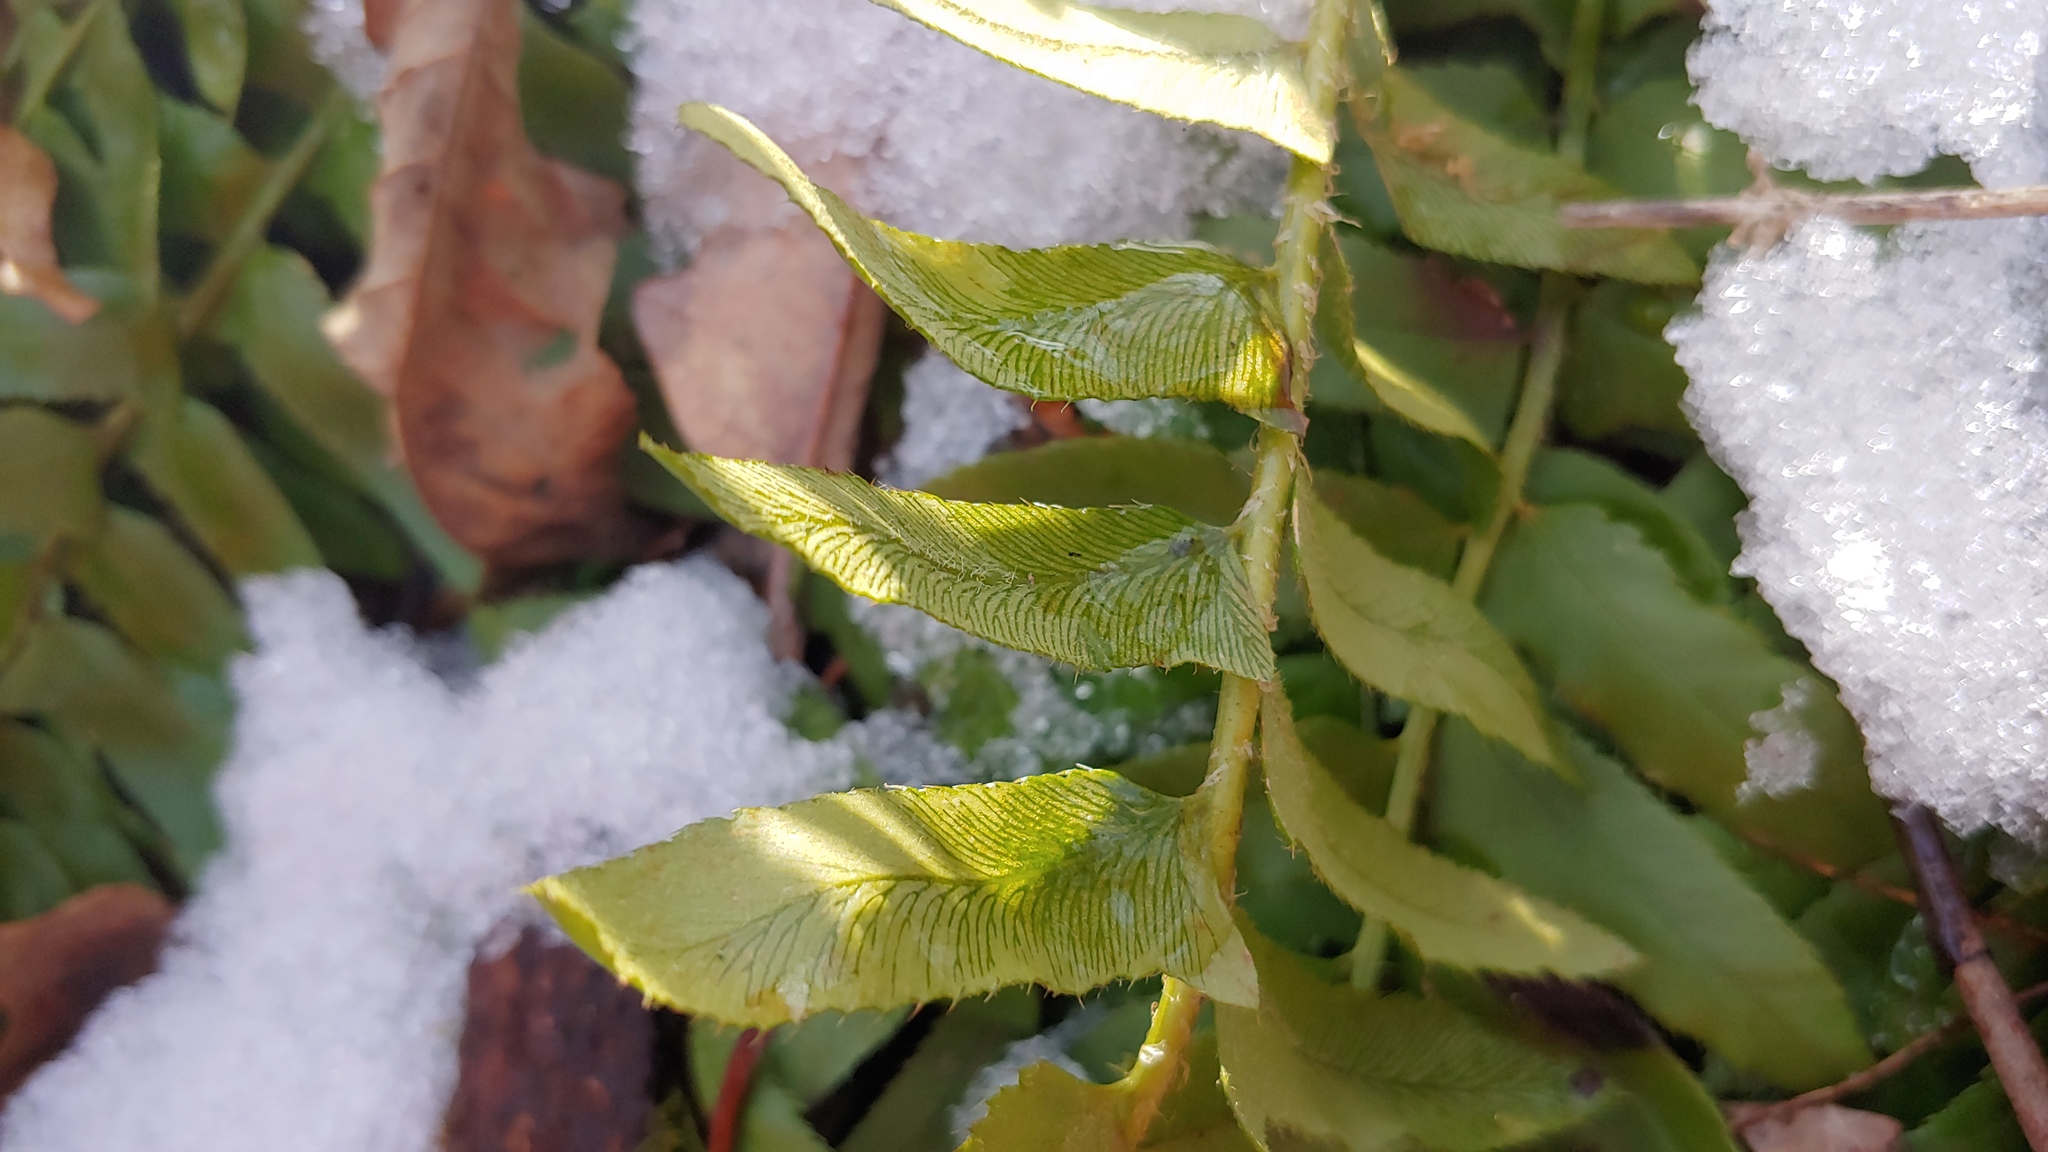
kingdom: Plantae
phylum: Tracheophyta
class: Polypodiopsida
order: Polypodiales
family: Dryopteridaceae
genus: Polystichum
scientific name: Polystichum acrostichoides
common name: Christmas fern
